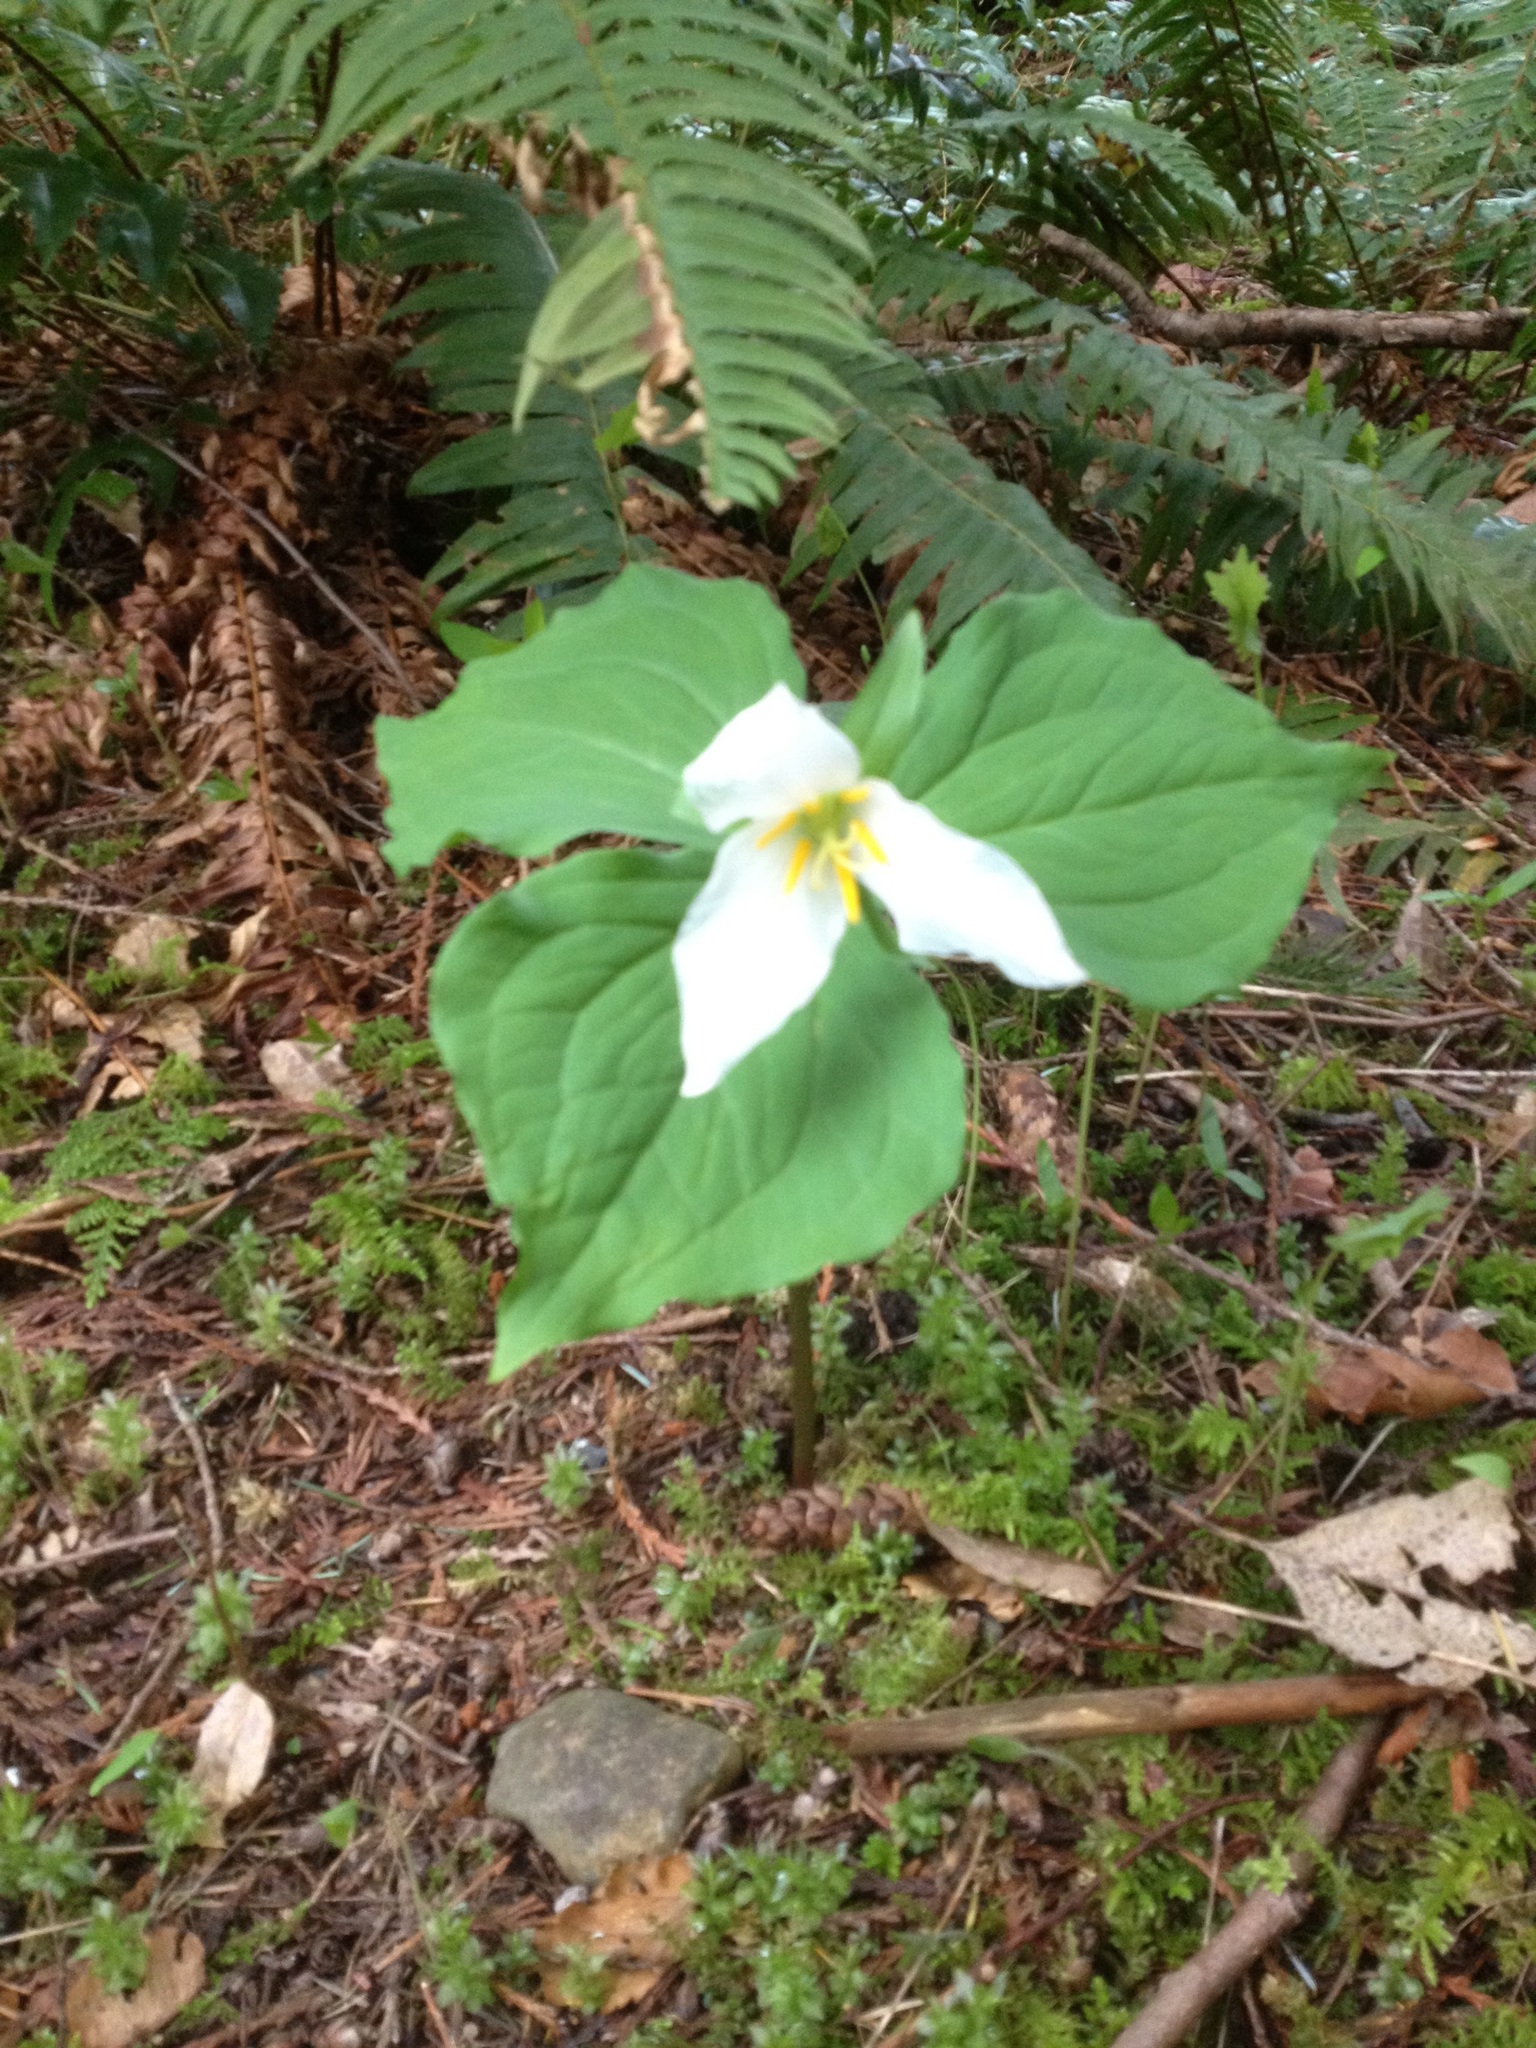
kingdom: Plantae
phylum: Tracheophyta
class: Liliopsida
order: Liliales
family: Melanthiaceae
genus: Trillium
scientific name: Trillium ovatum
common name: Pacific trillium
